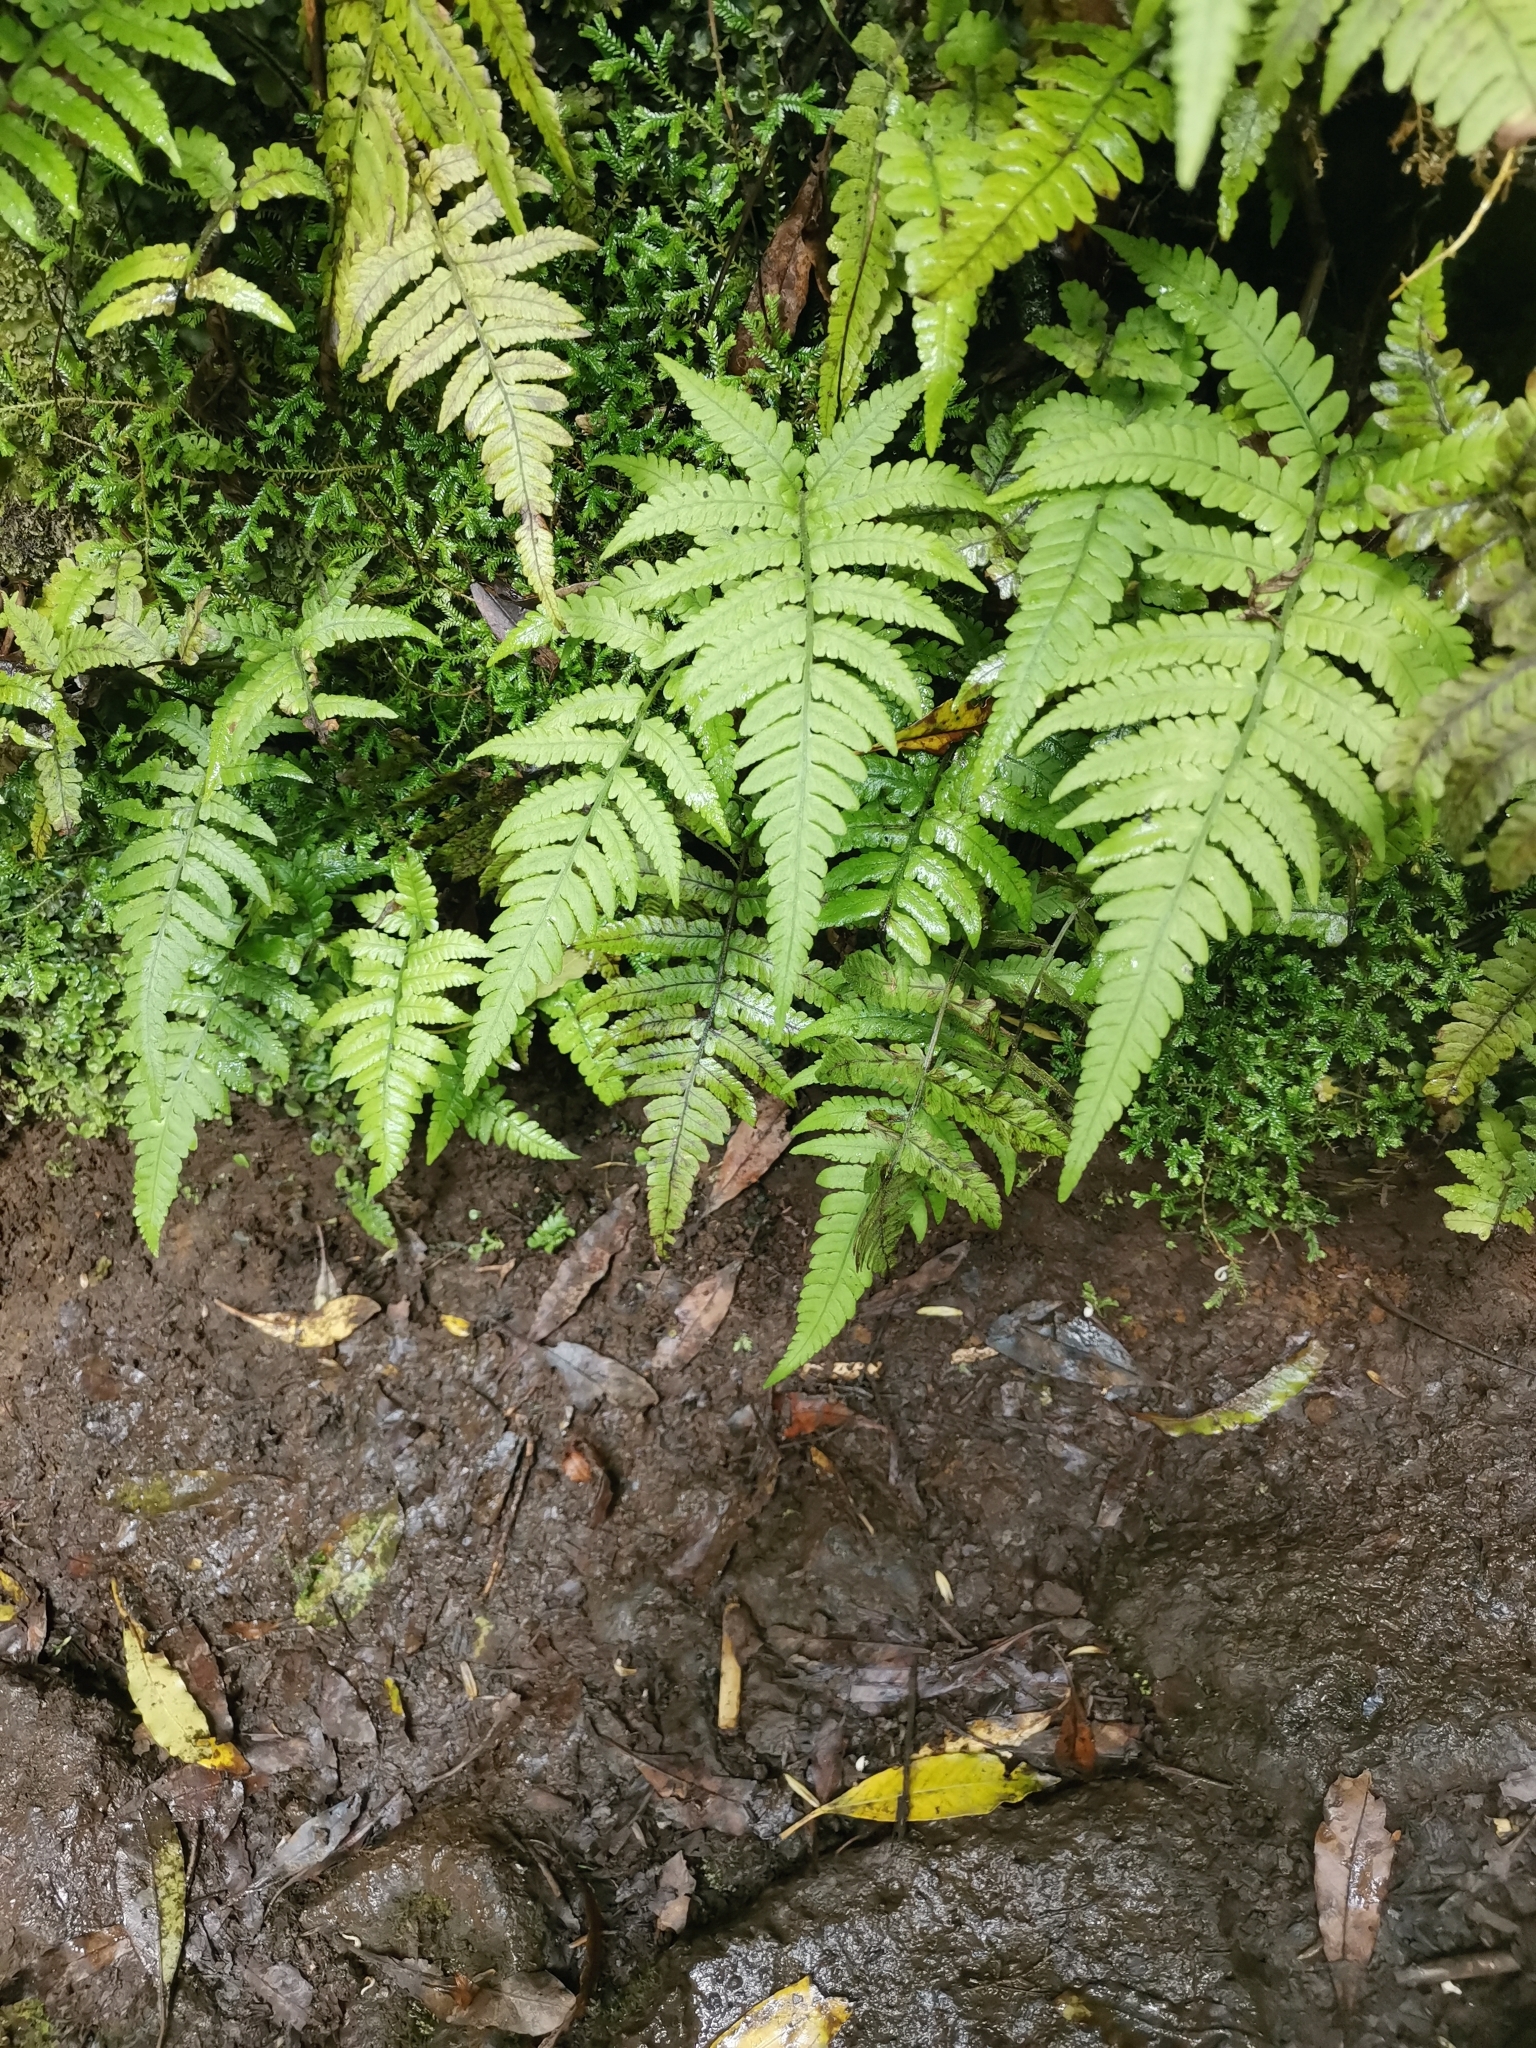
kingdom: Plantae
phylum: Tracheophyta
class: Polypodiopsida
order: Polypodiales
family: Athyriaceae
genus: Deparia
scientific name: Deparia petersenii
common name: Japanese false spleenwort
